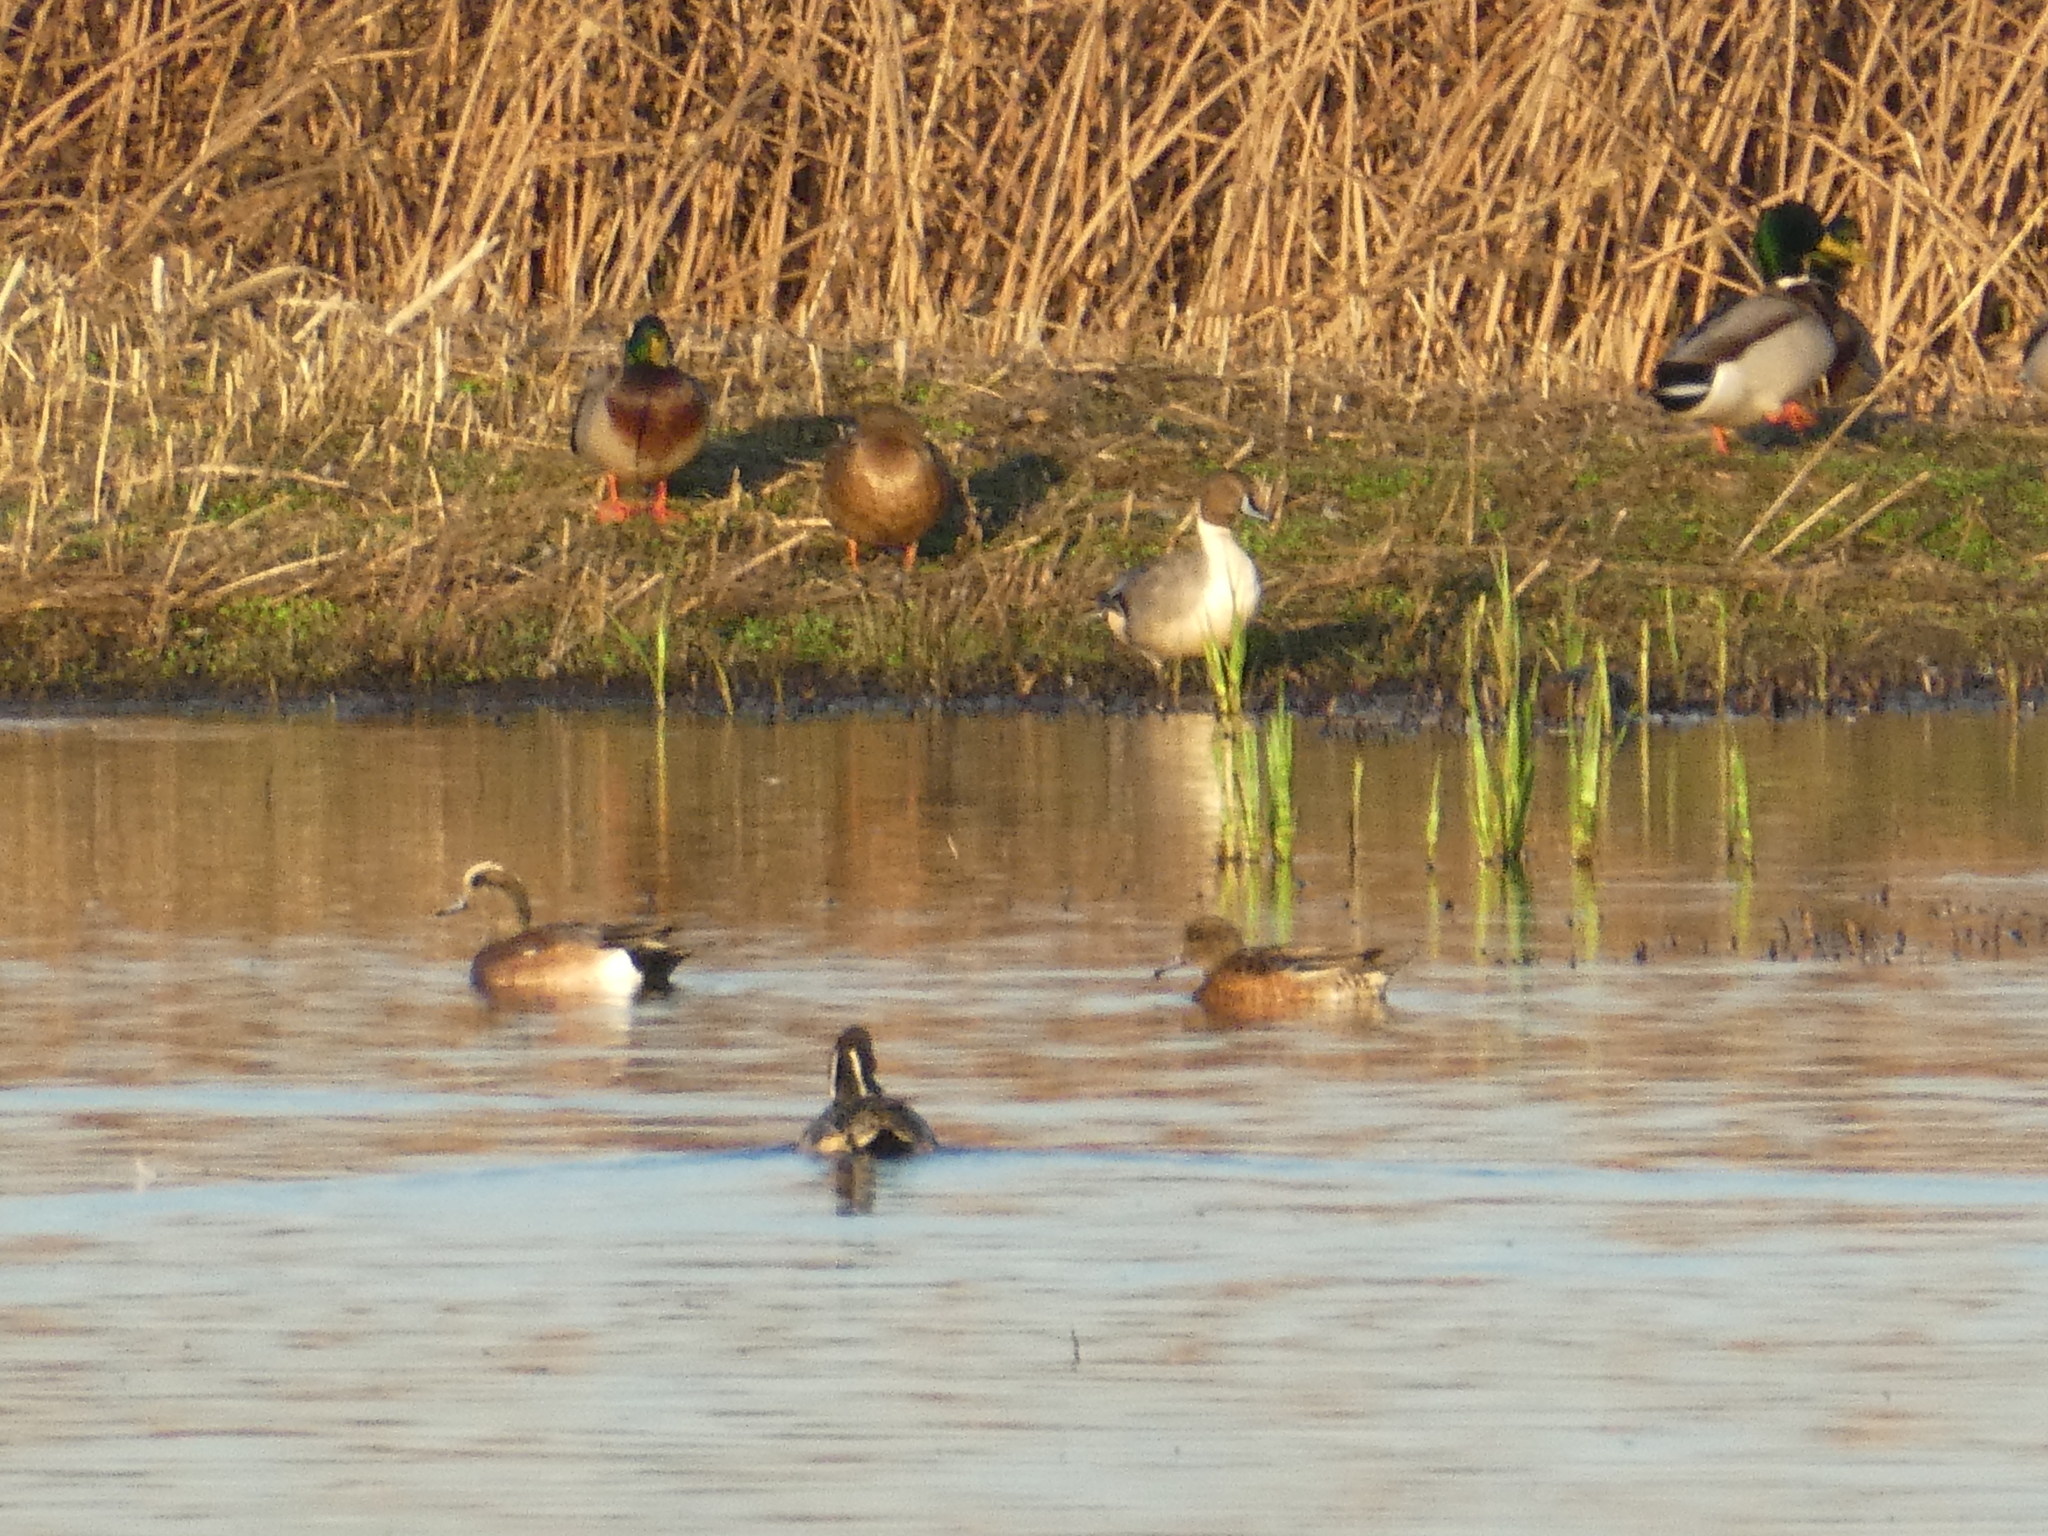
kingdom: Animalia
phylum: Chordata
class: Aves
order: Anseriformes
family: Anatidae
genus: Anas
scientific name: Anas acuta
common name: Northern pintail
